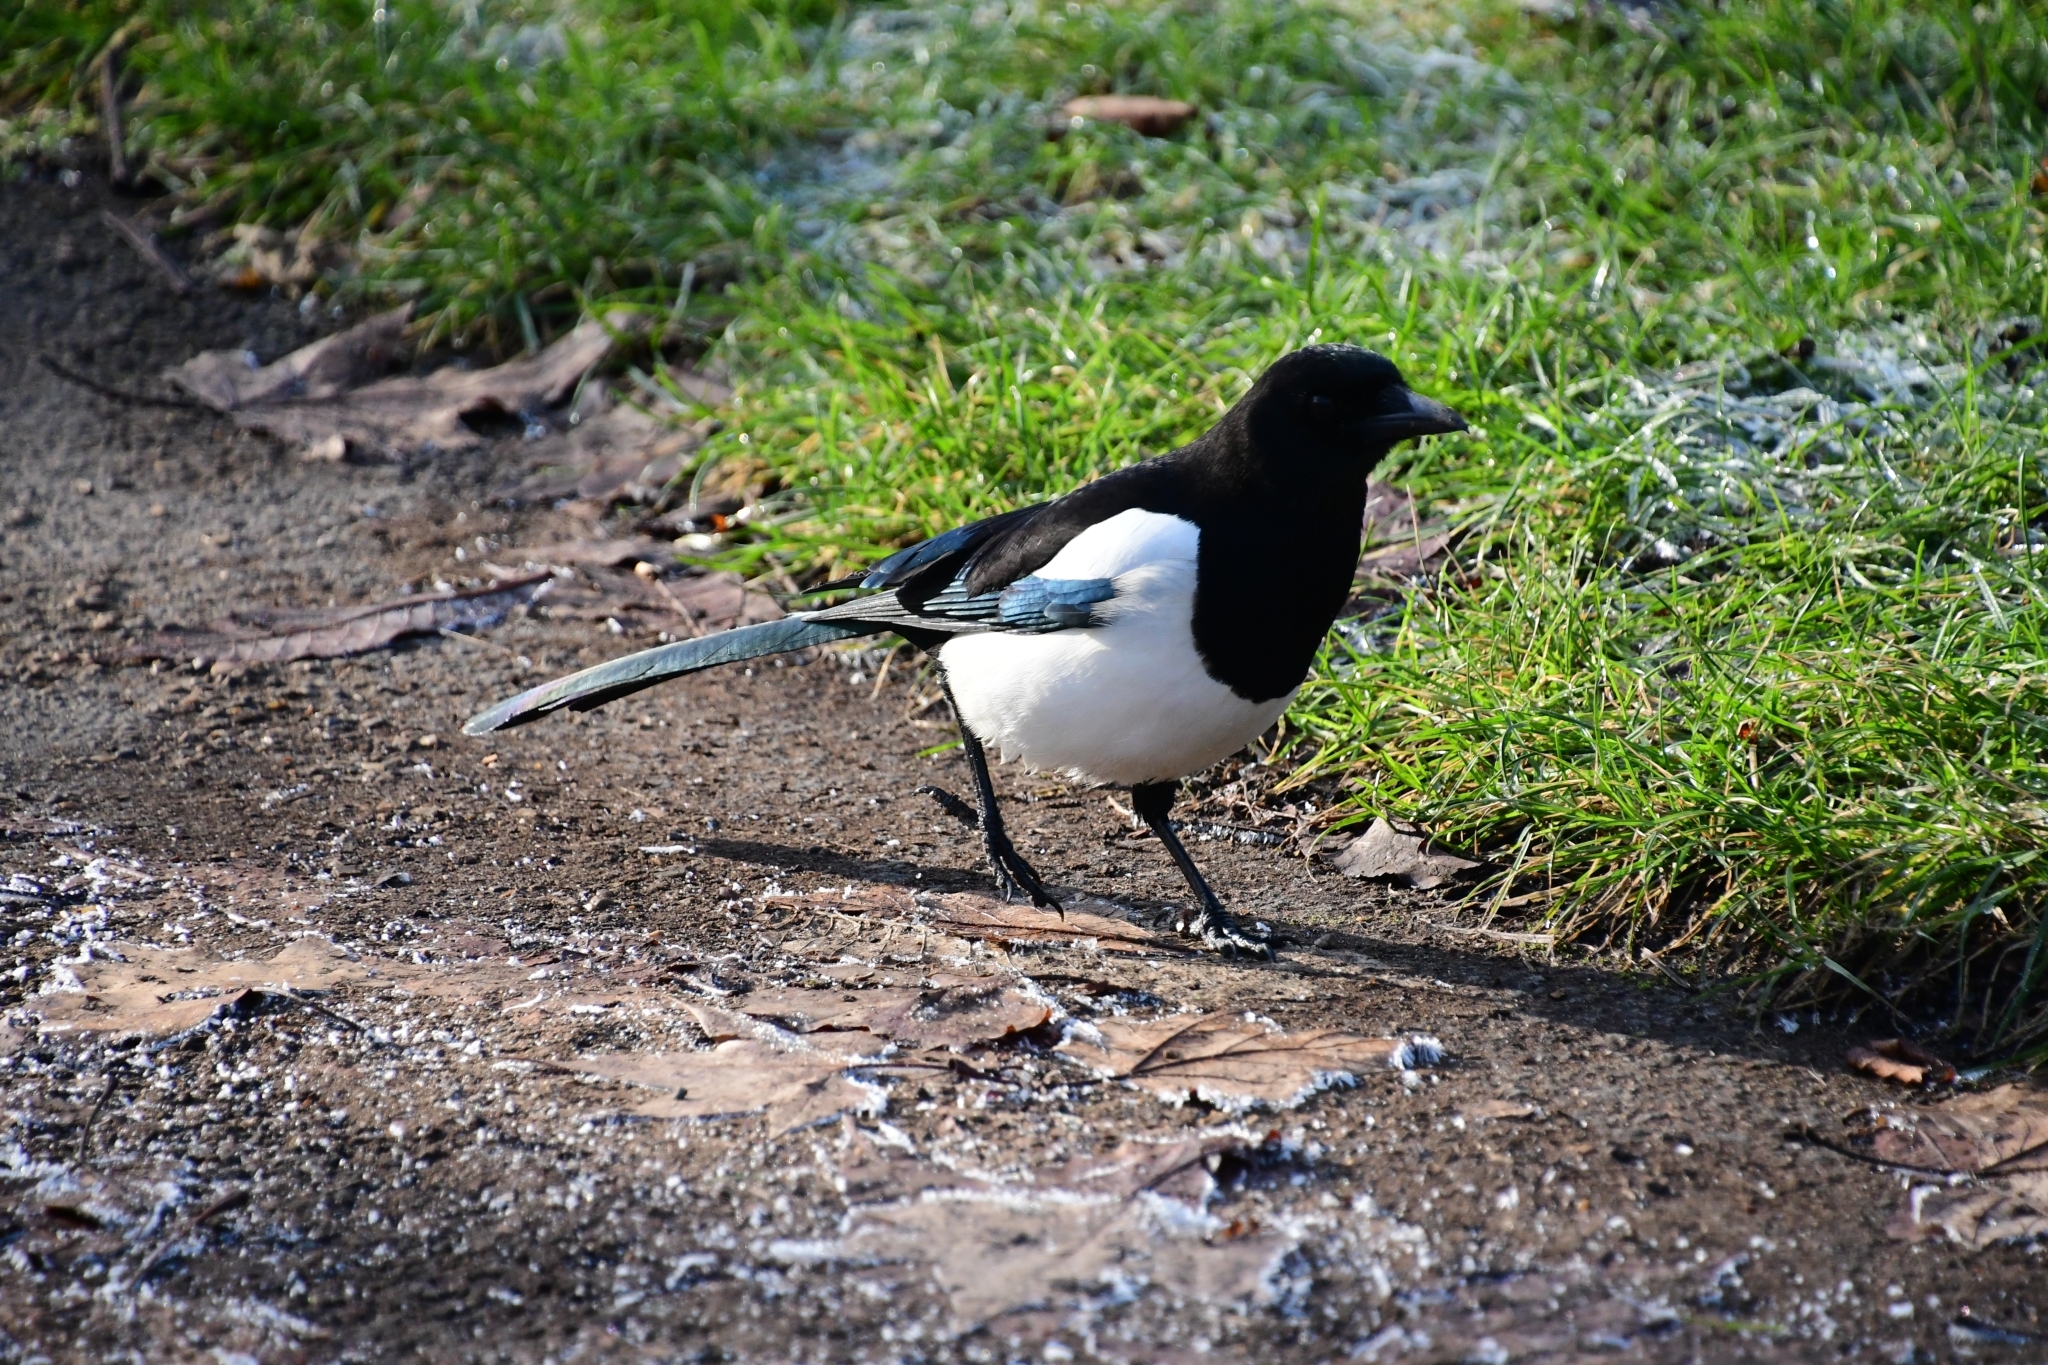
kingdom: Animalia
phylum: Chordata
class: Aves
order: Passeriformes
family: Corvidae
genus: Pica
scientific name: Pica pica
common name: Eurasian magpie
